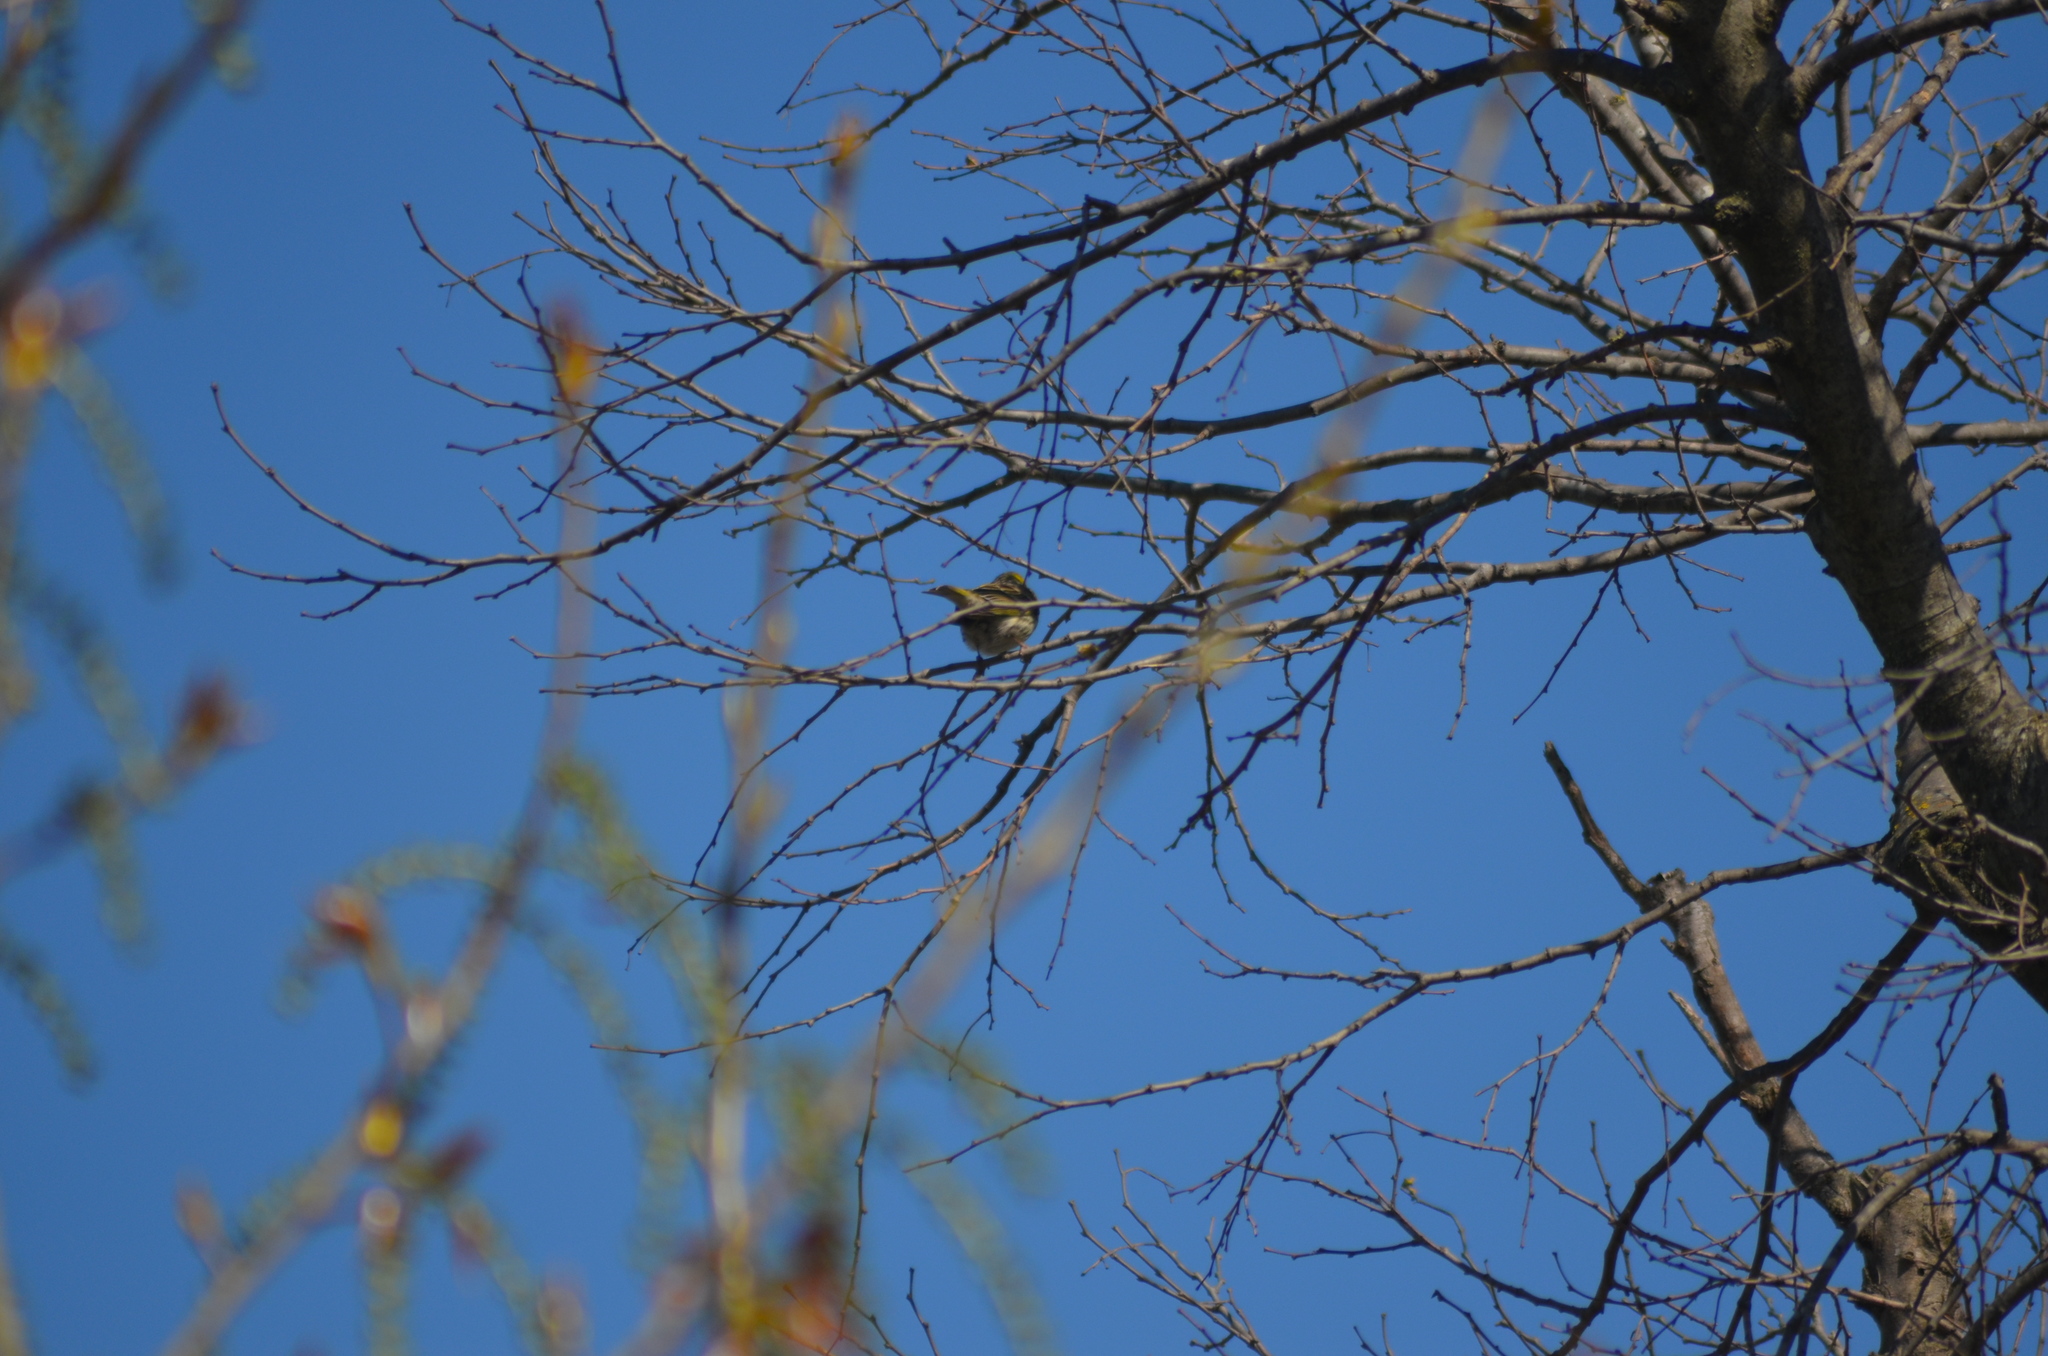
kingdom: Animalia
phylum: Chordata
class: Aves
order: Passeriformes
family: Fringillidae
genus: Serinus
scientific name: Serinus serinus
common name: European serin
